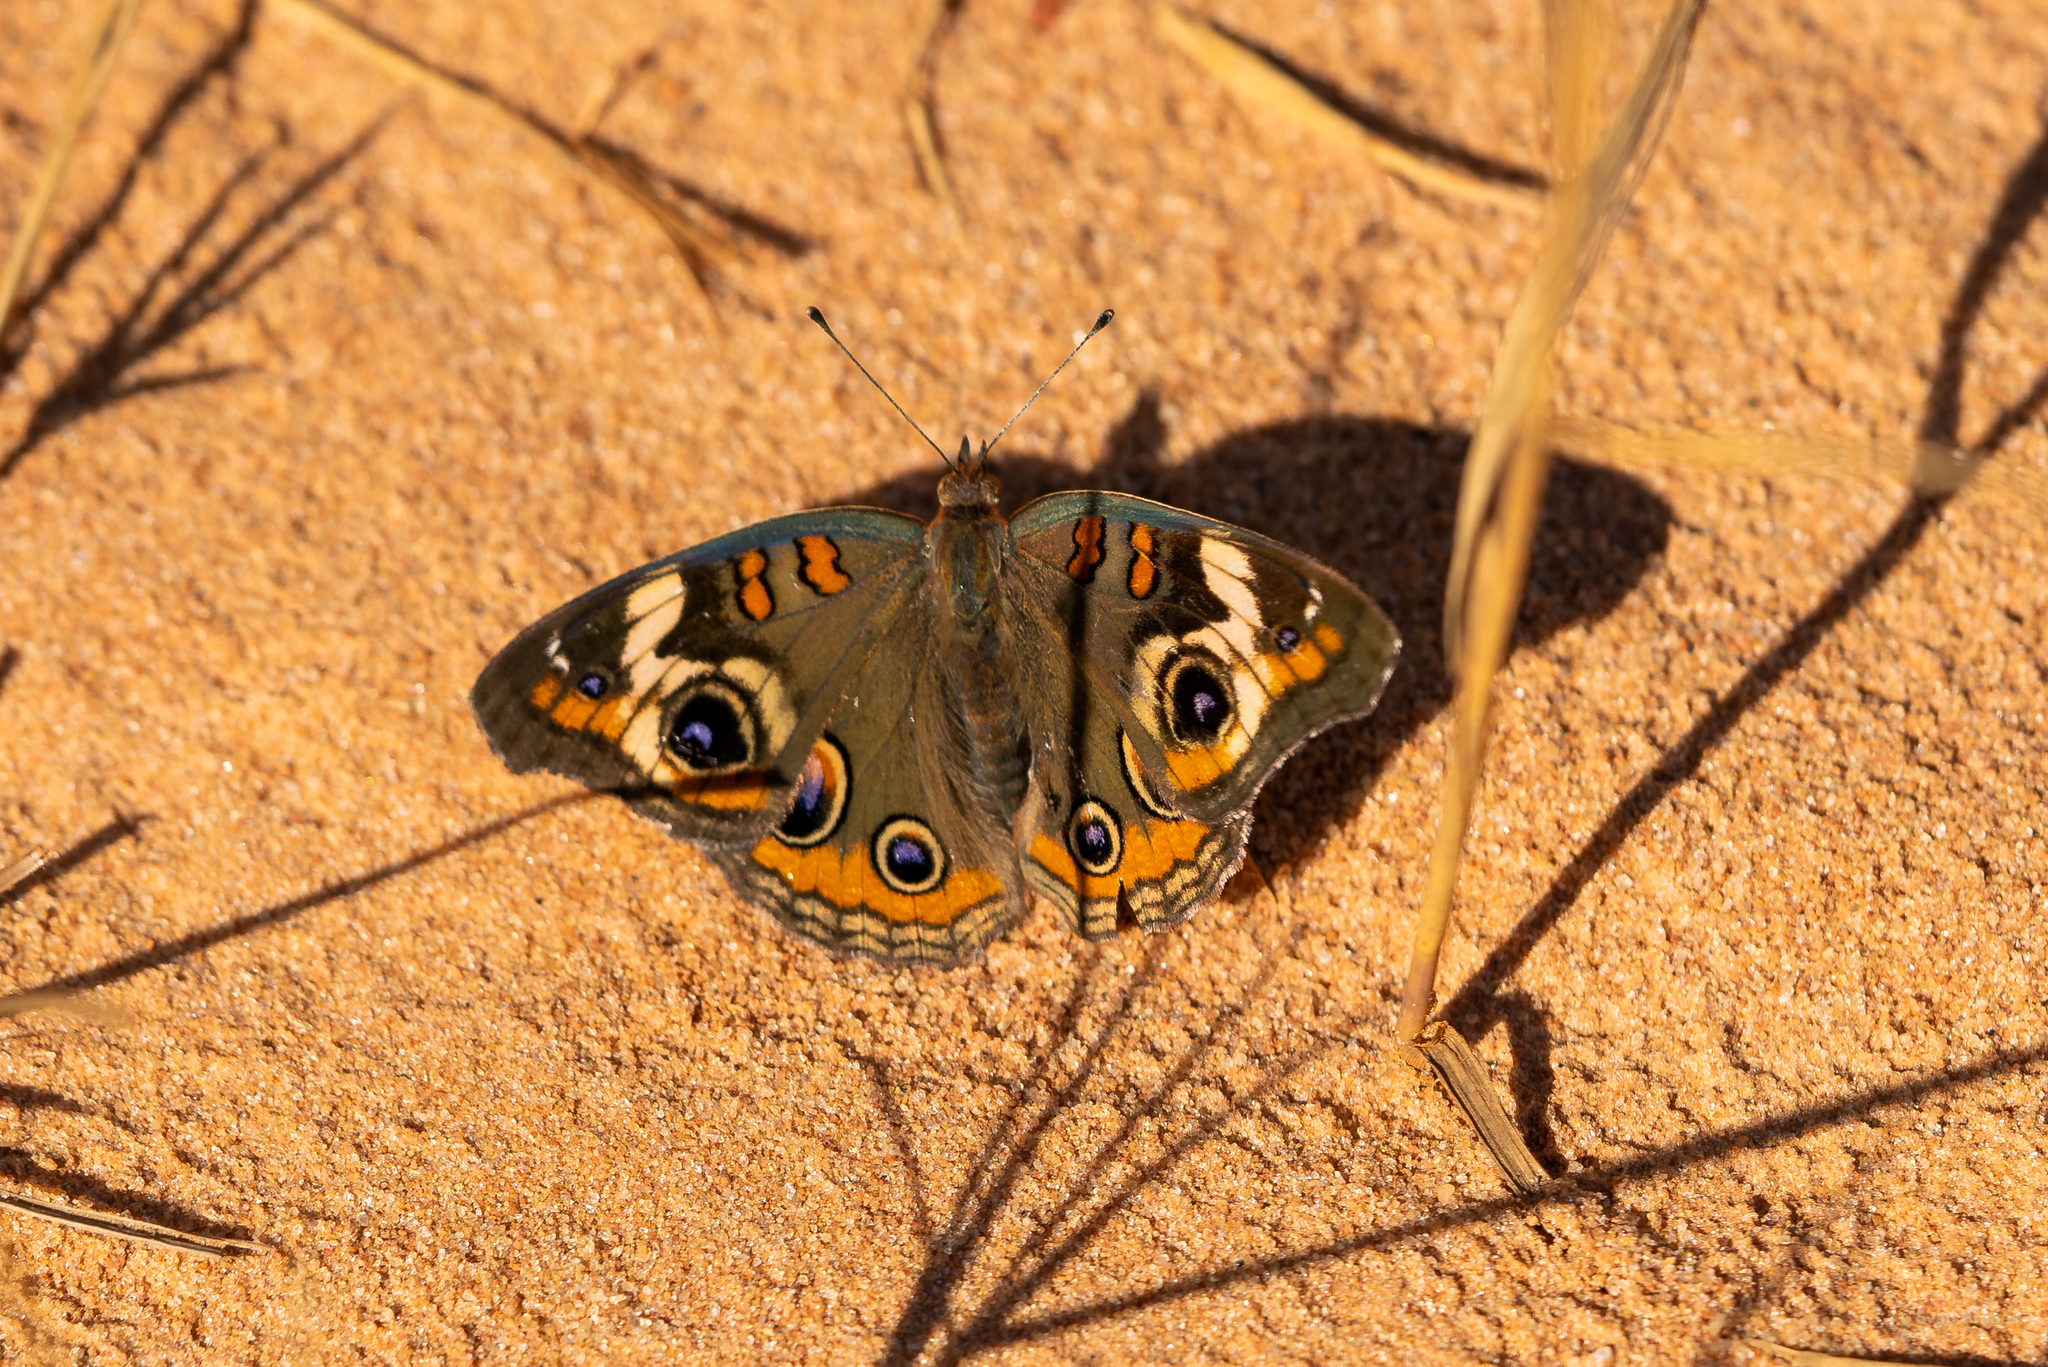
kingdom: Animalia
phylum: Arthropoda
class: Insecta
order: Lepidoptera
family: Nymphalidae
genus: Junonia
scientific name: Junonia coenia
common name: Common buckeye
